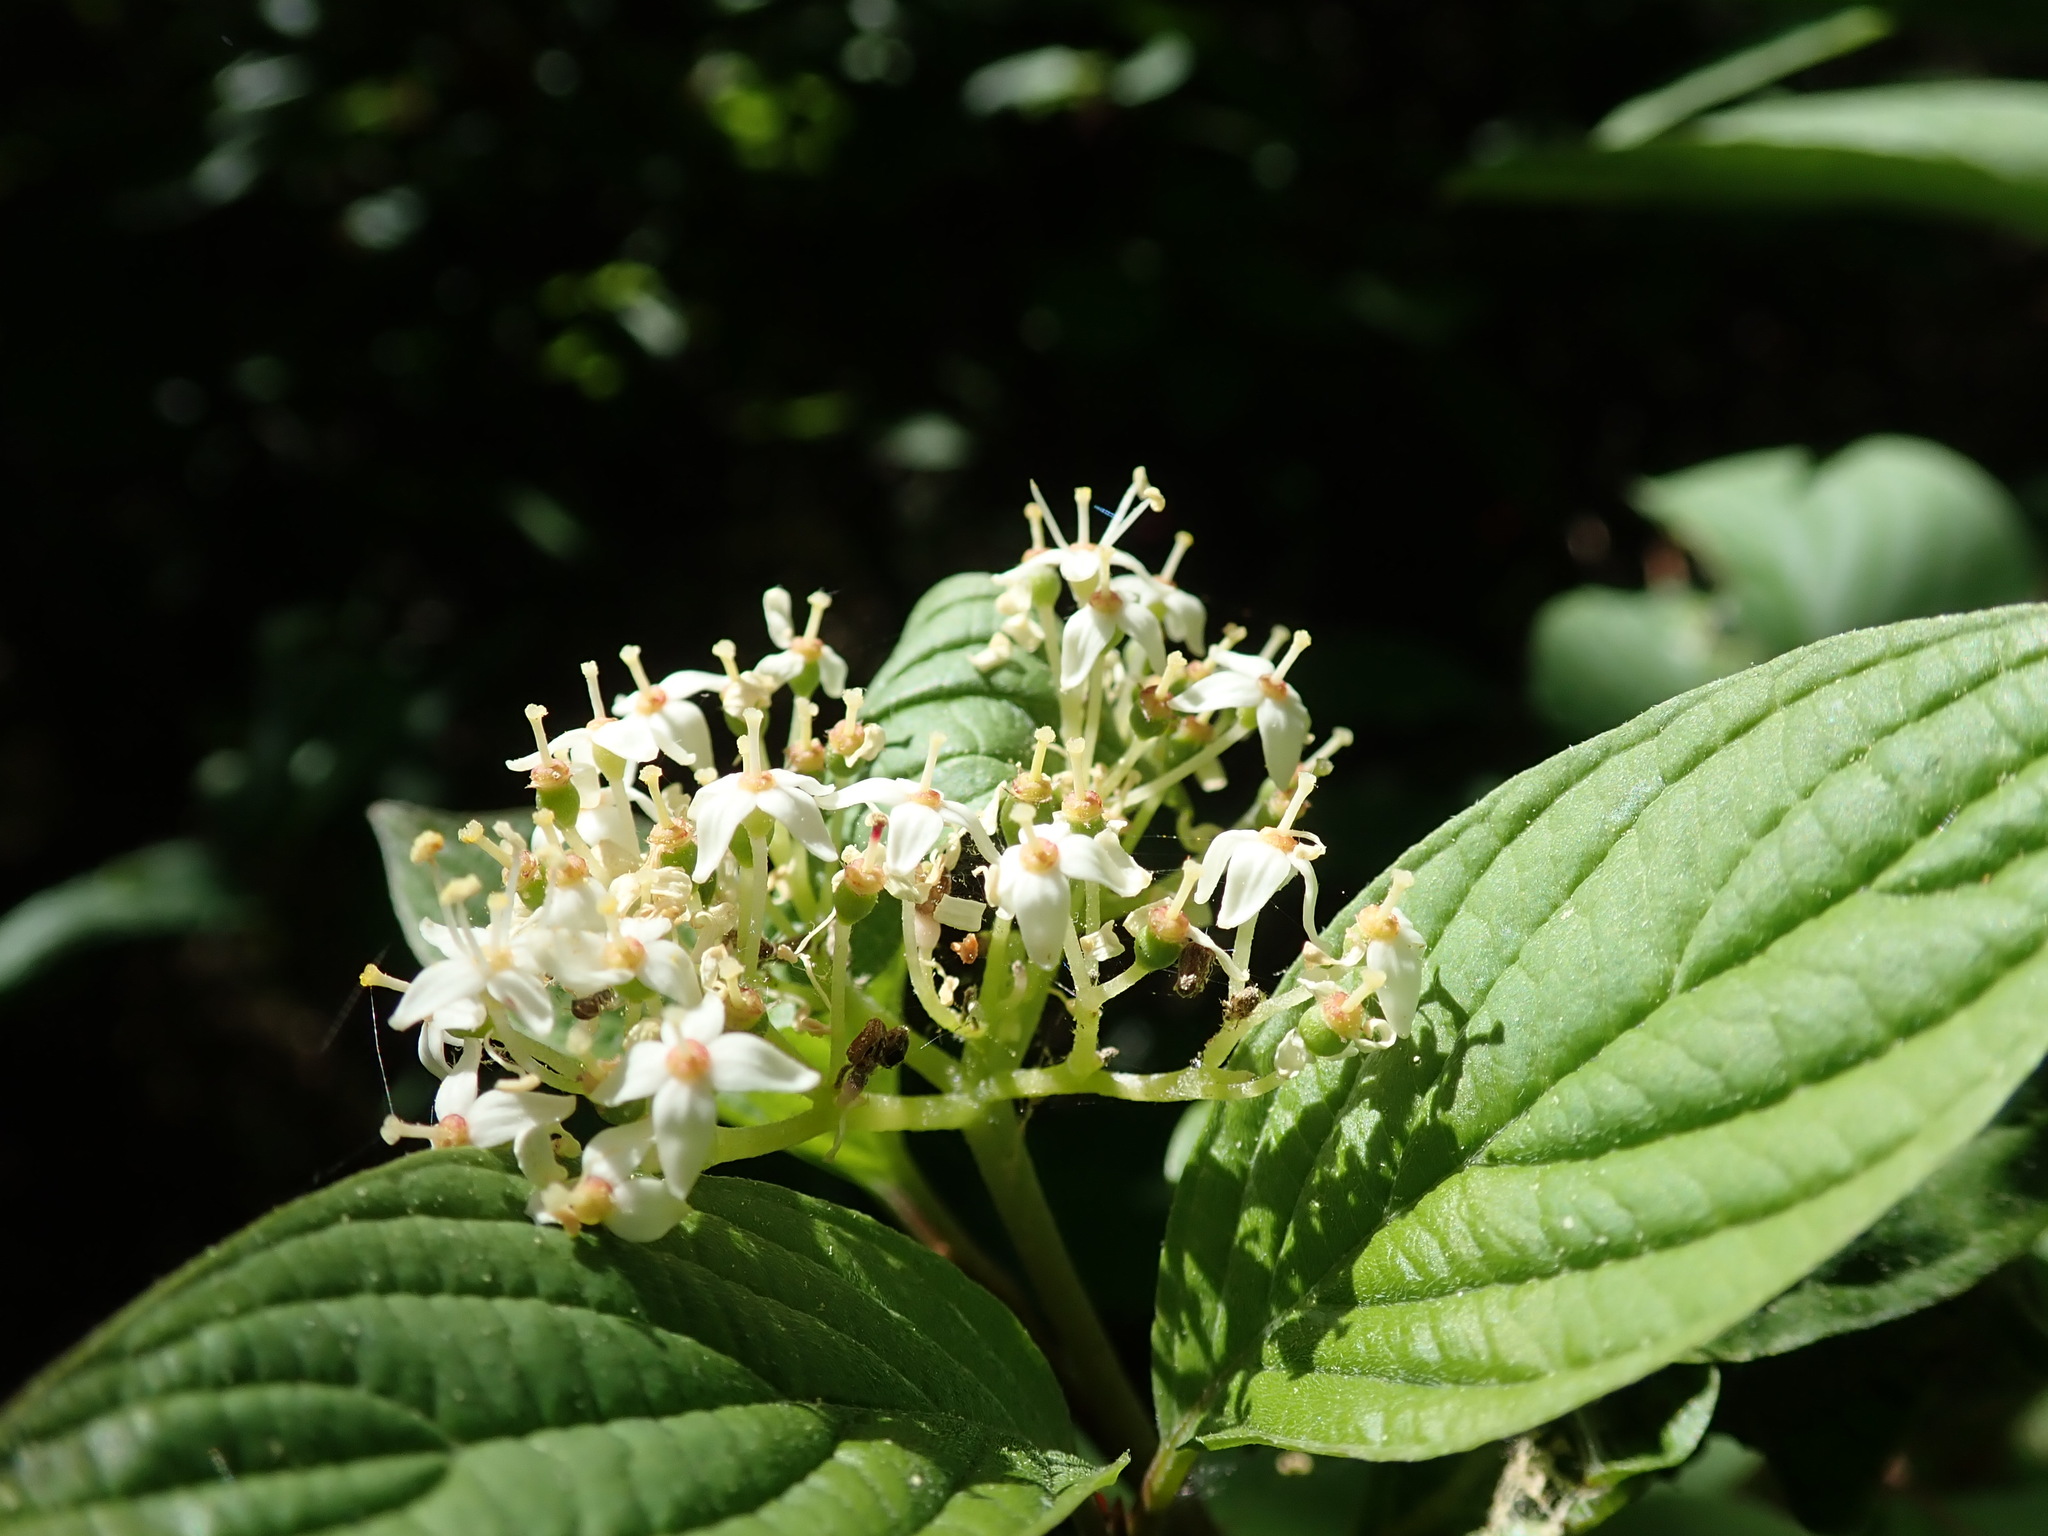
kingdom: Plantae
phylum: Tracheophyta
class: Magnoliopsida
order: Cornales
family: Cornaceae
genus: Cornus
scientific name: Cornus sericea
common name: Red-osier dogwood
